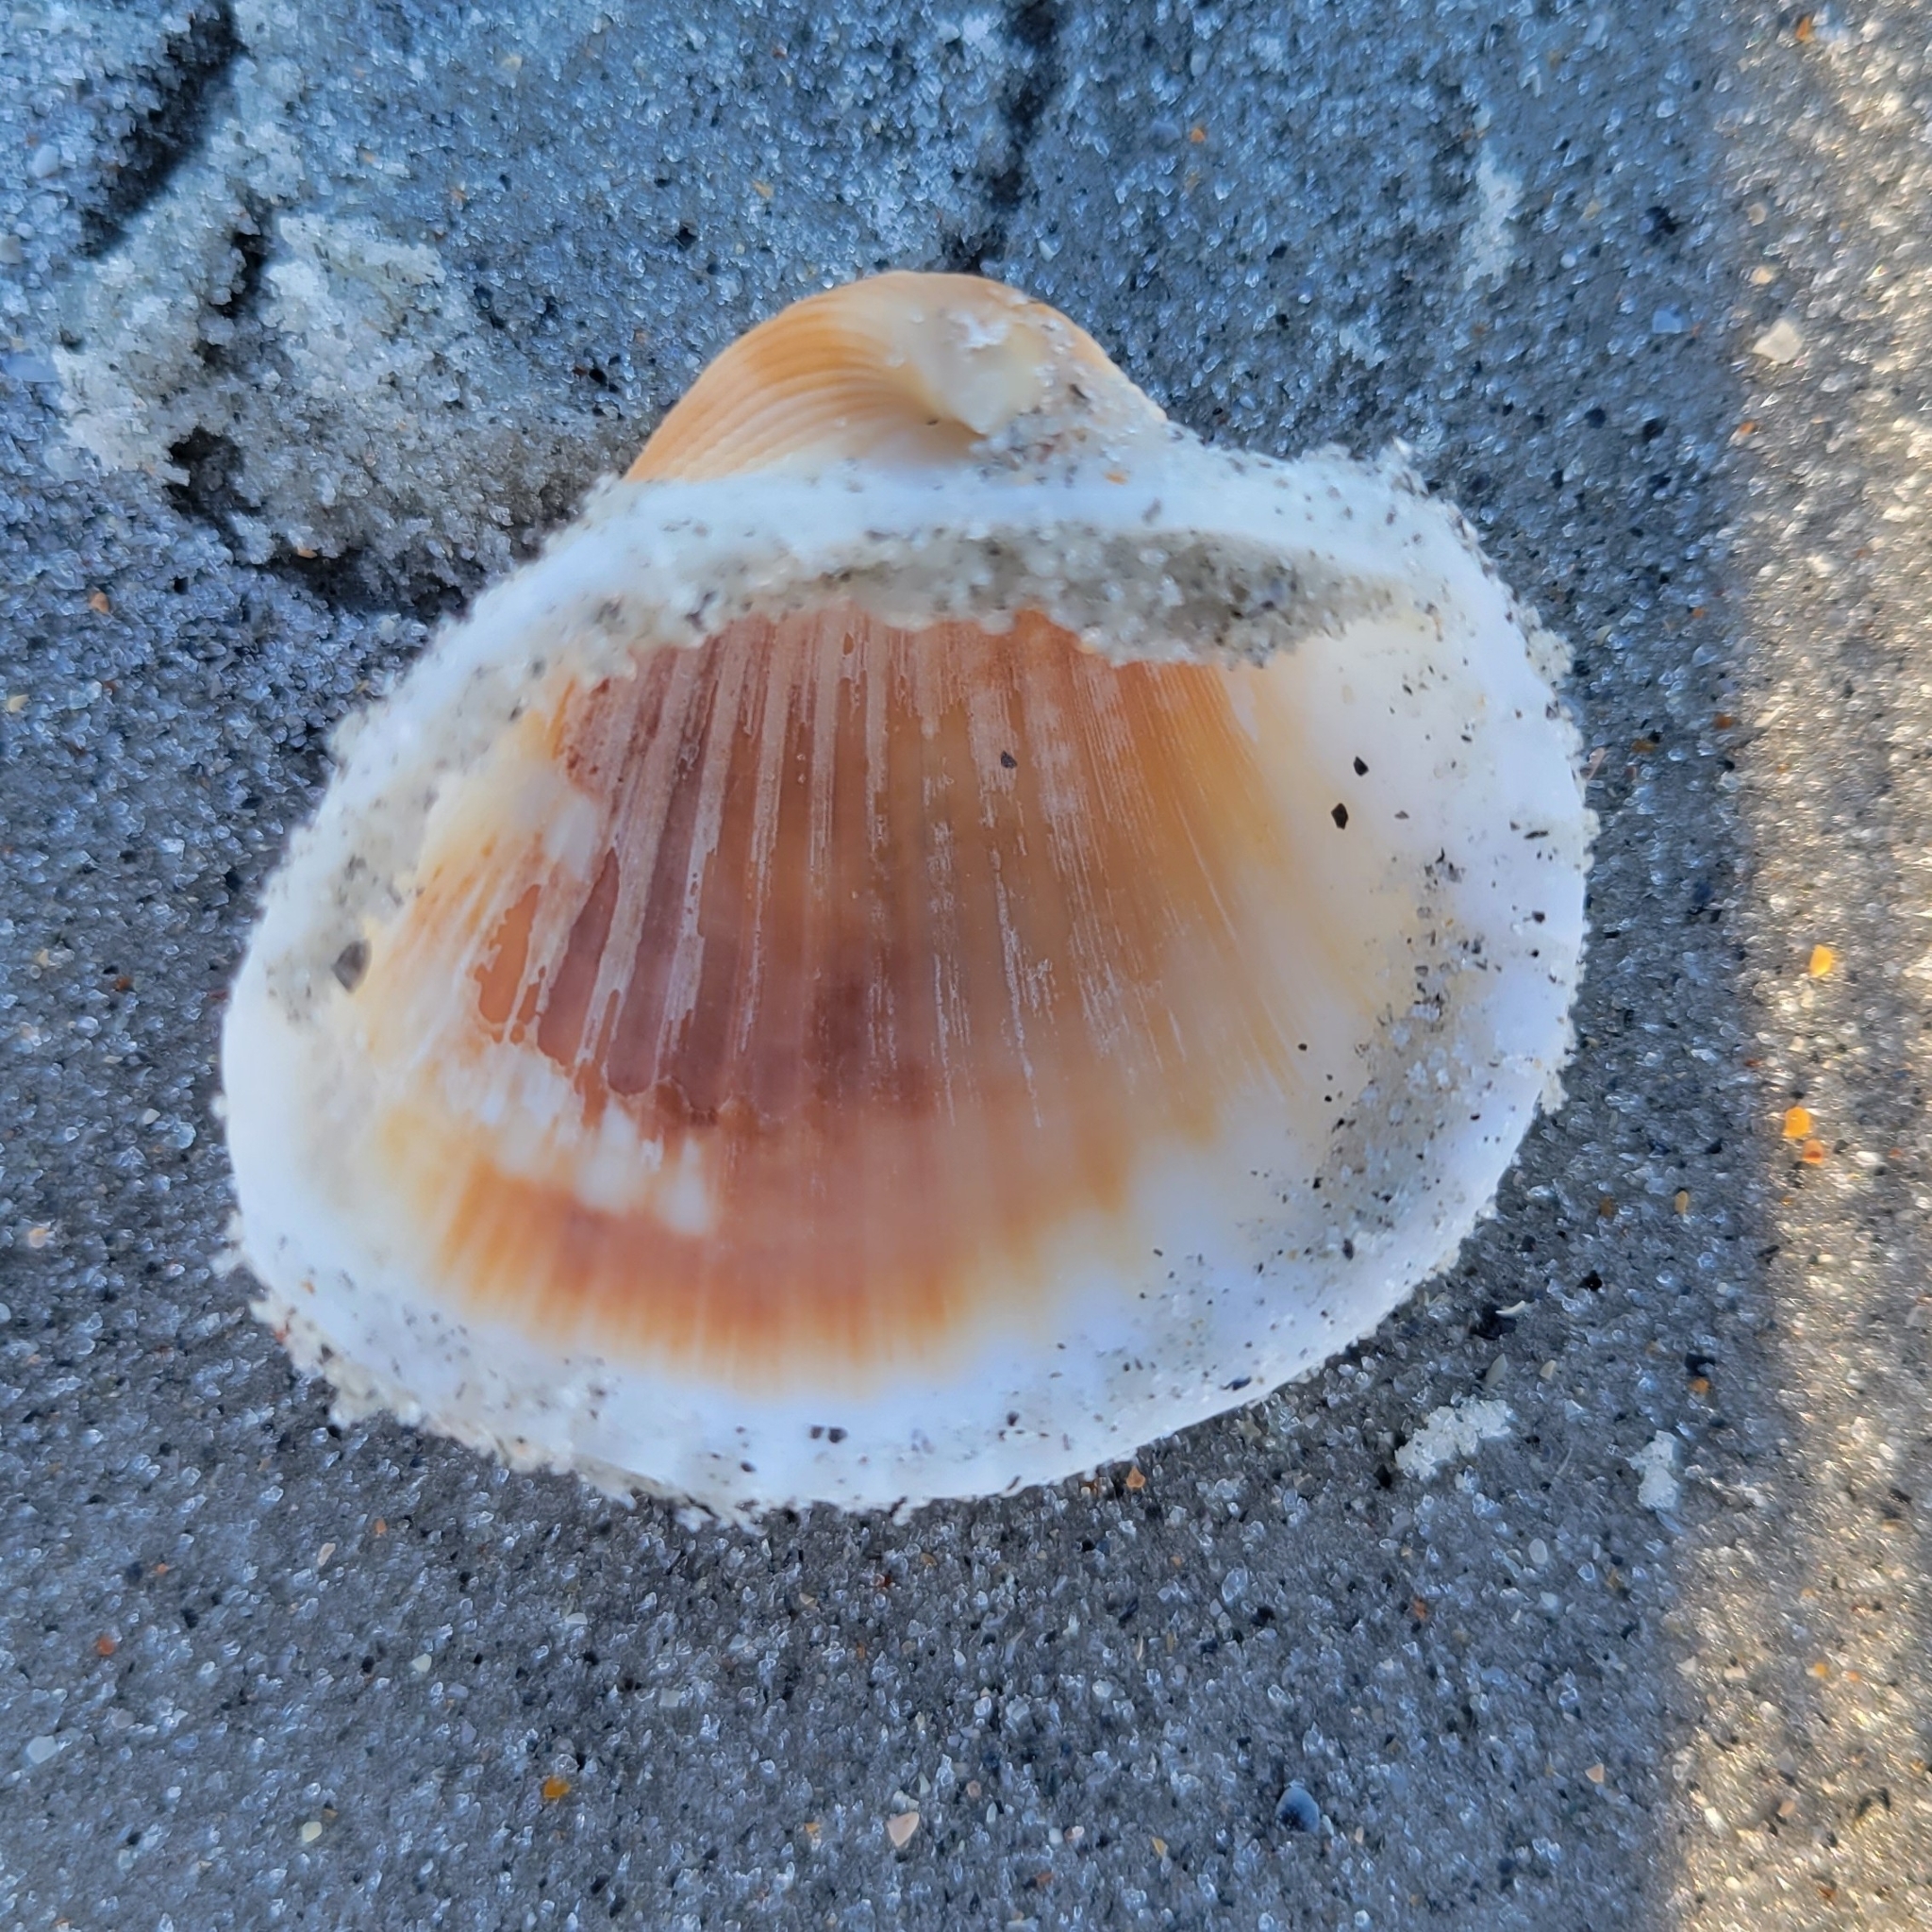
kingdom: Animalia
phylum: Mollusca
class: Bivalvia
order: Arcida
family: Arcidae
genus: Anadara
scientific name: Anadara brasiliana
